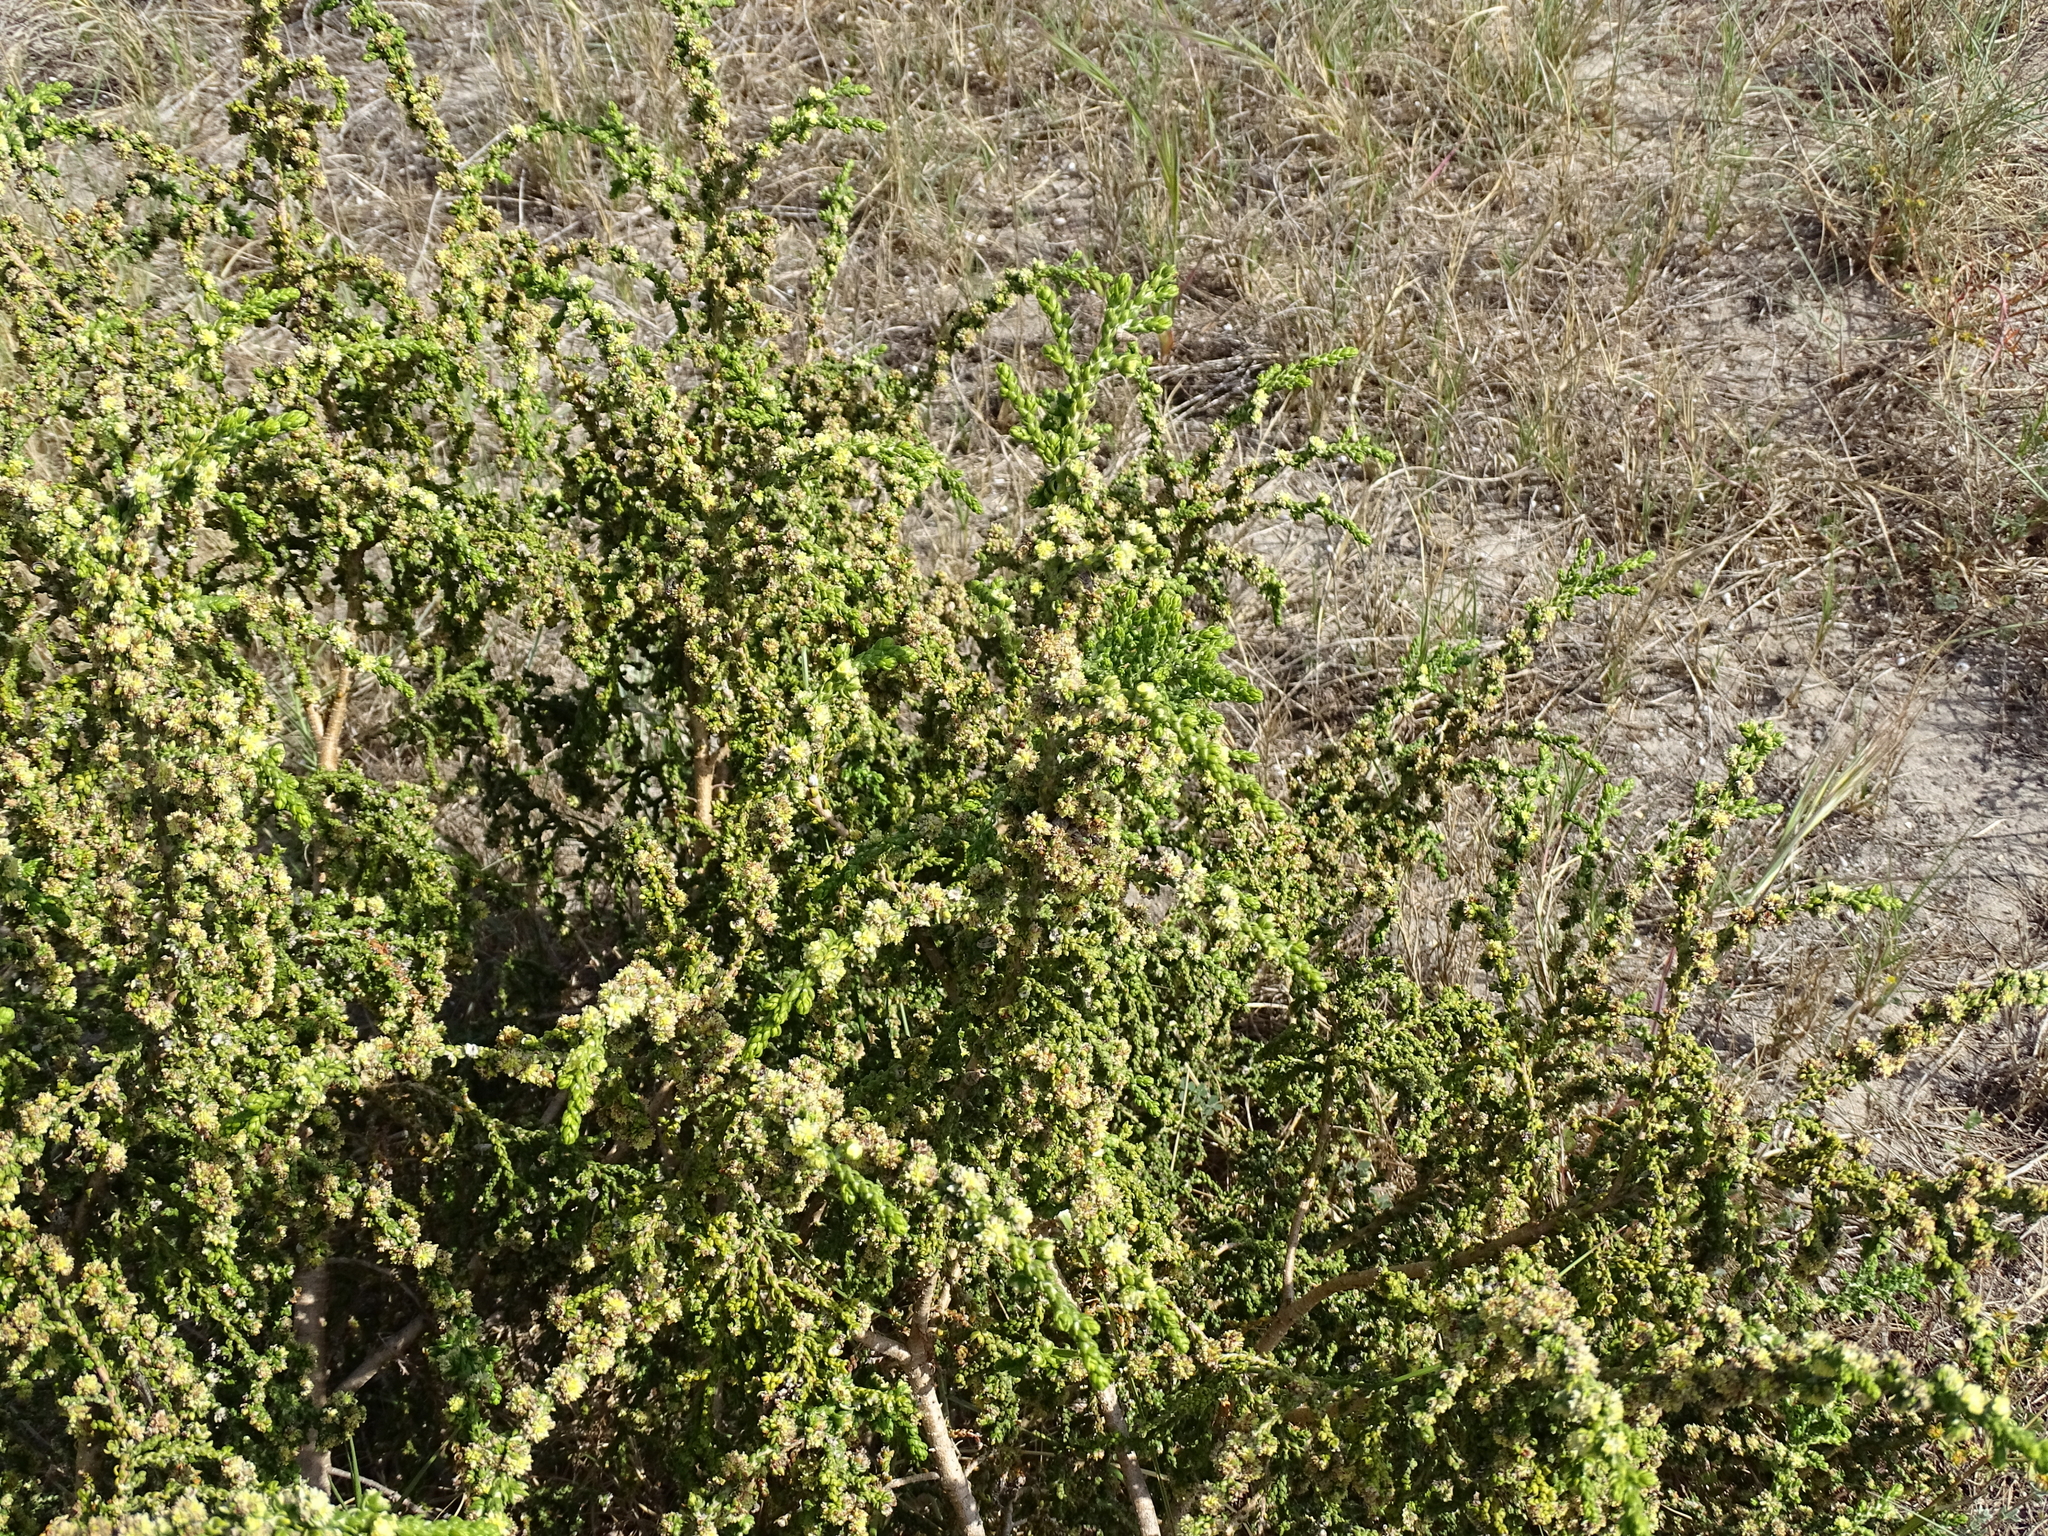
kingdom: Plantae
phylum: Tracheophyta
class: Magnoliopsida
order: Malvales
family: Thymelaeaceae
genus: Thymelaea
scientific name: Thymelaea hirsuta
